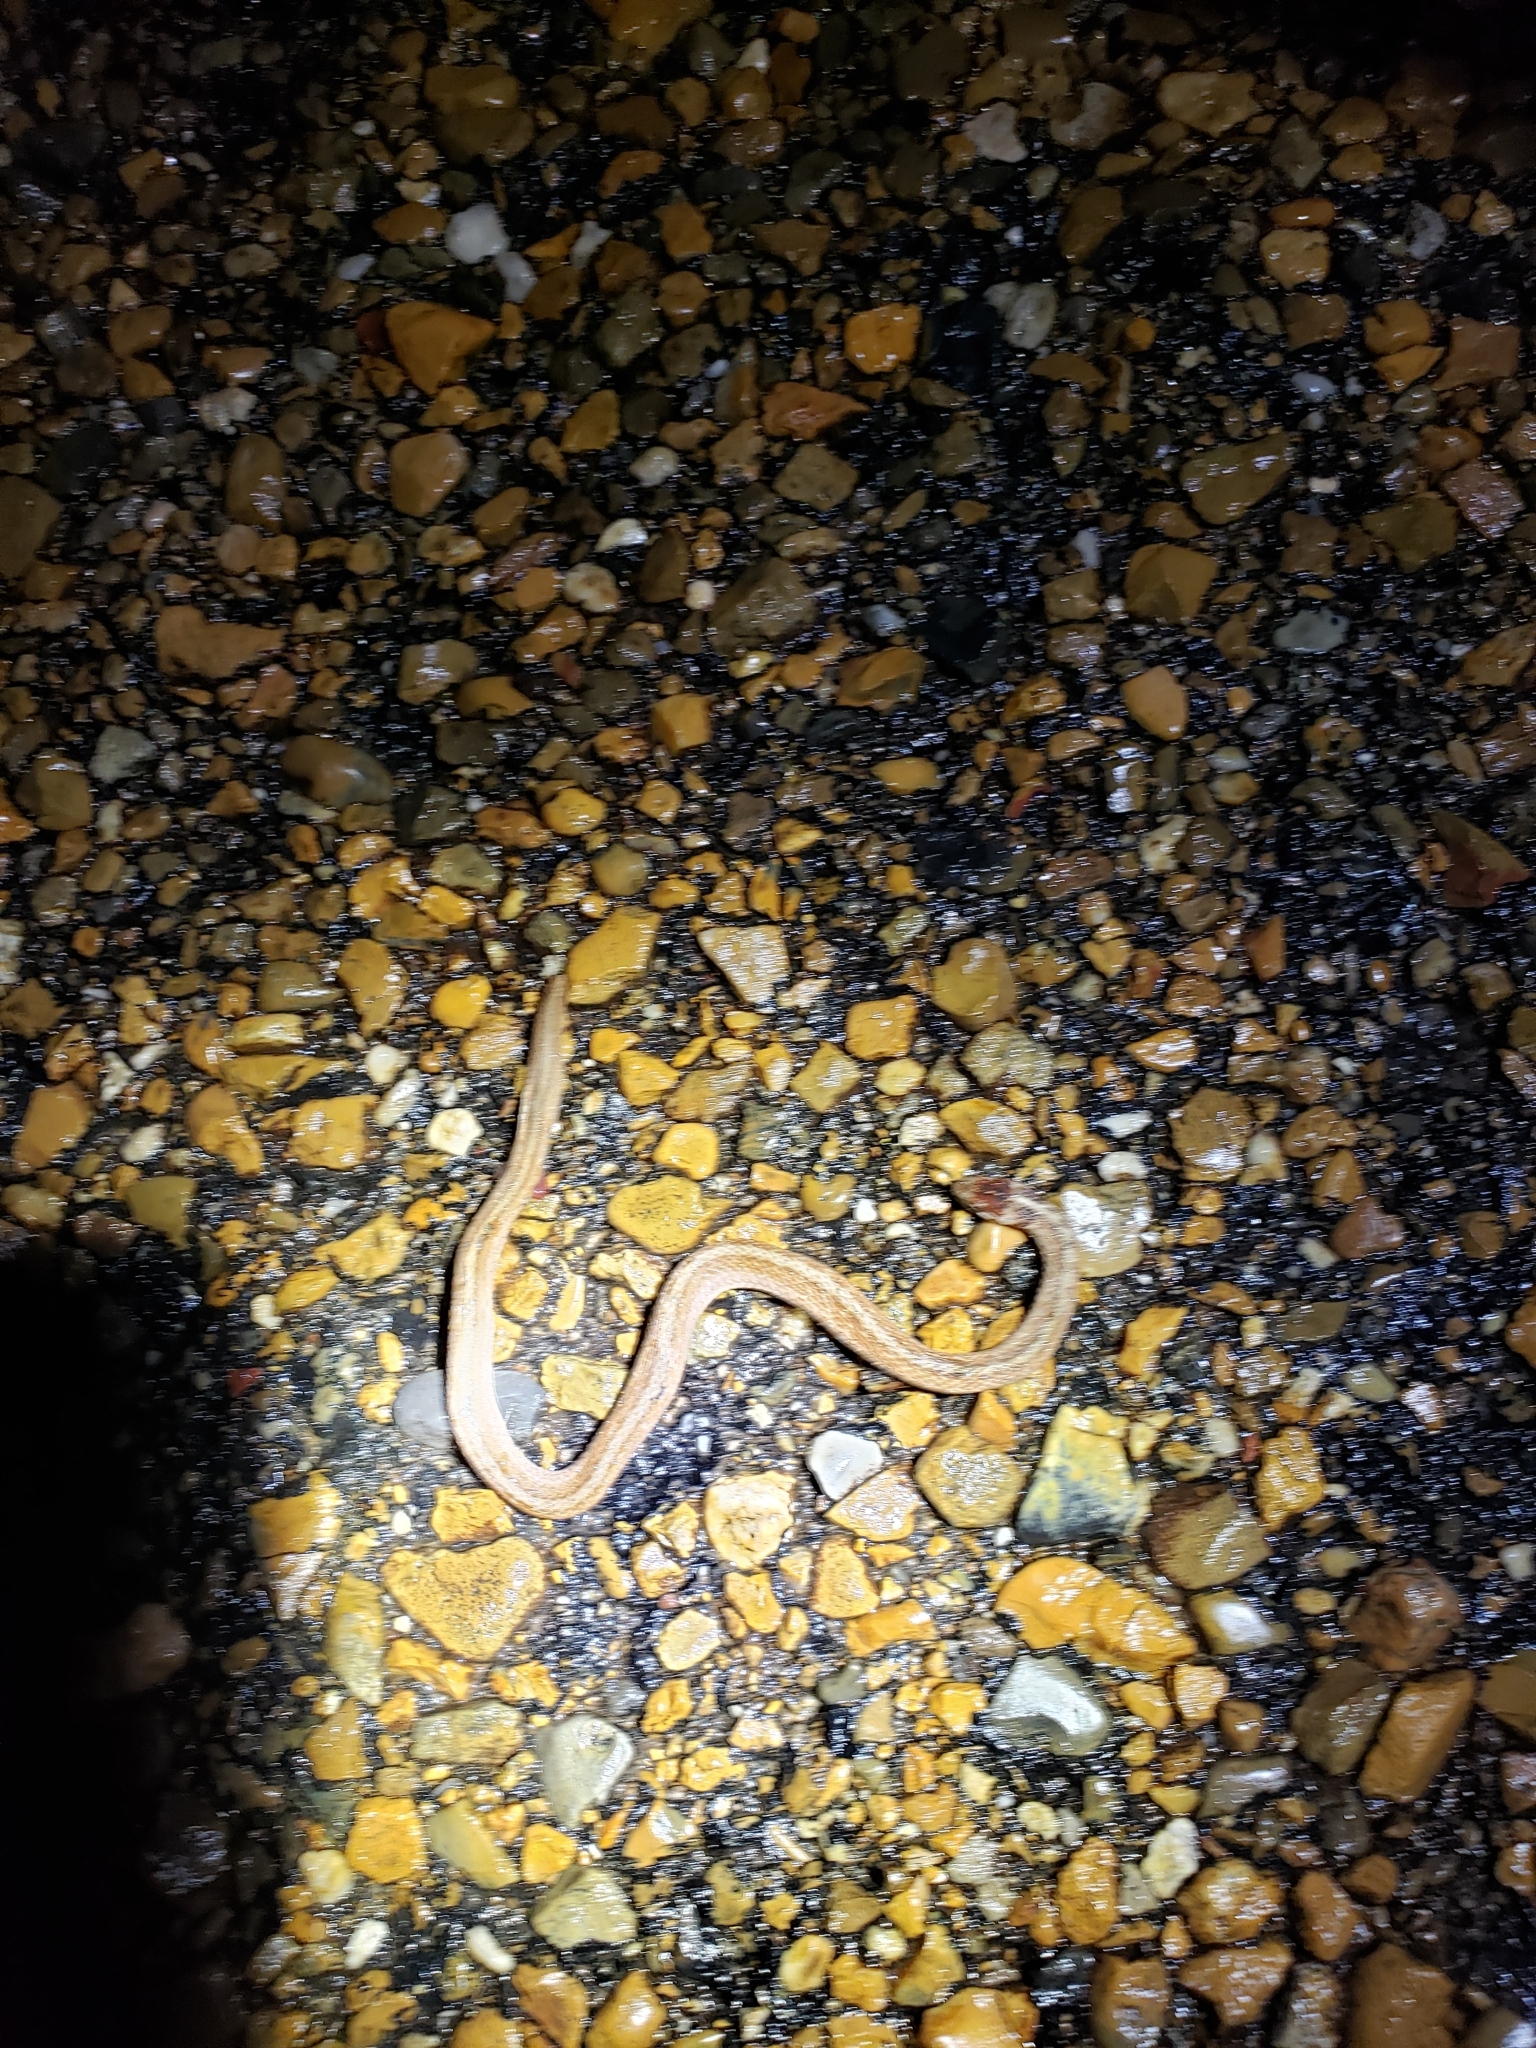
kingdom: Animalia
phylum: Chordata
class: Squamata
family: Colubridae
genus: Storeria
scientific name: Storeria dekayi
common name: (dekay’s) brown snake
